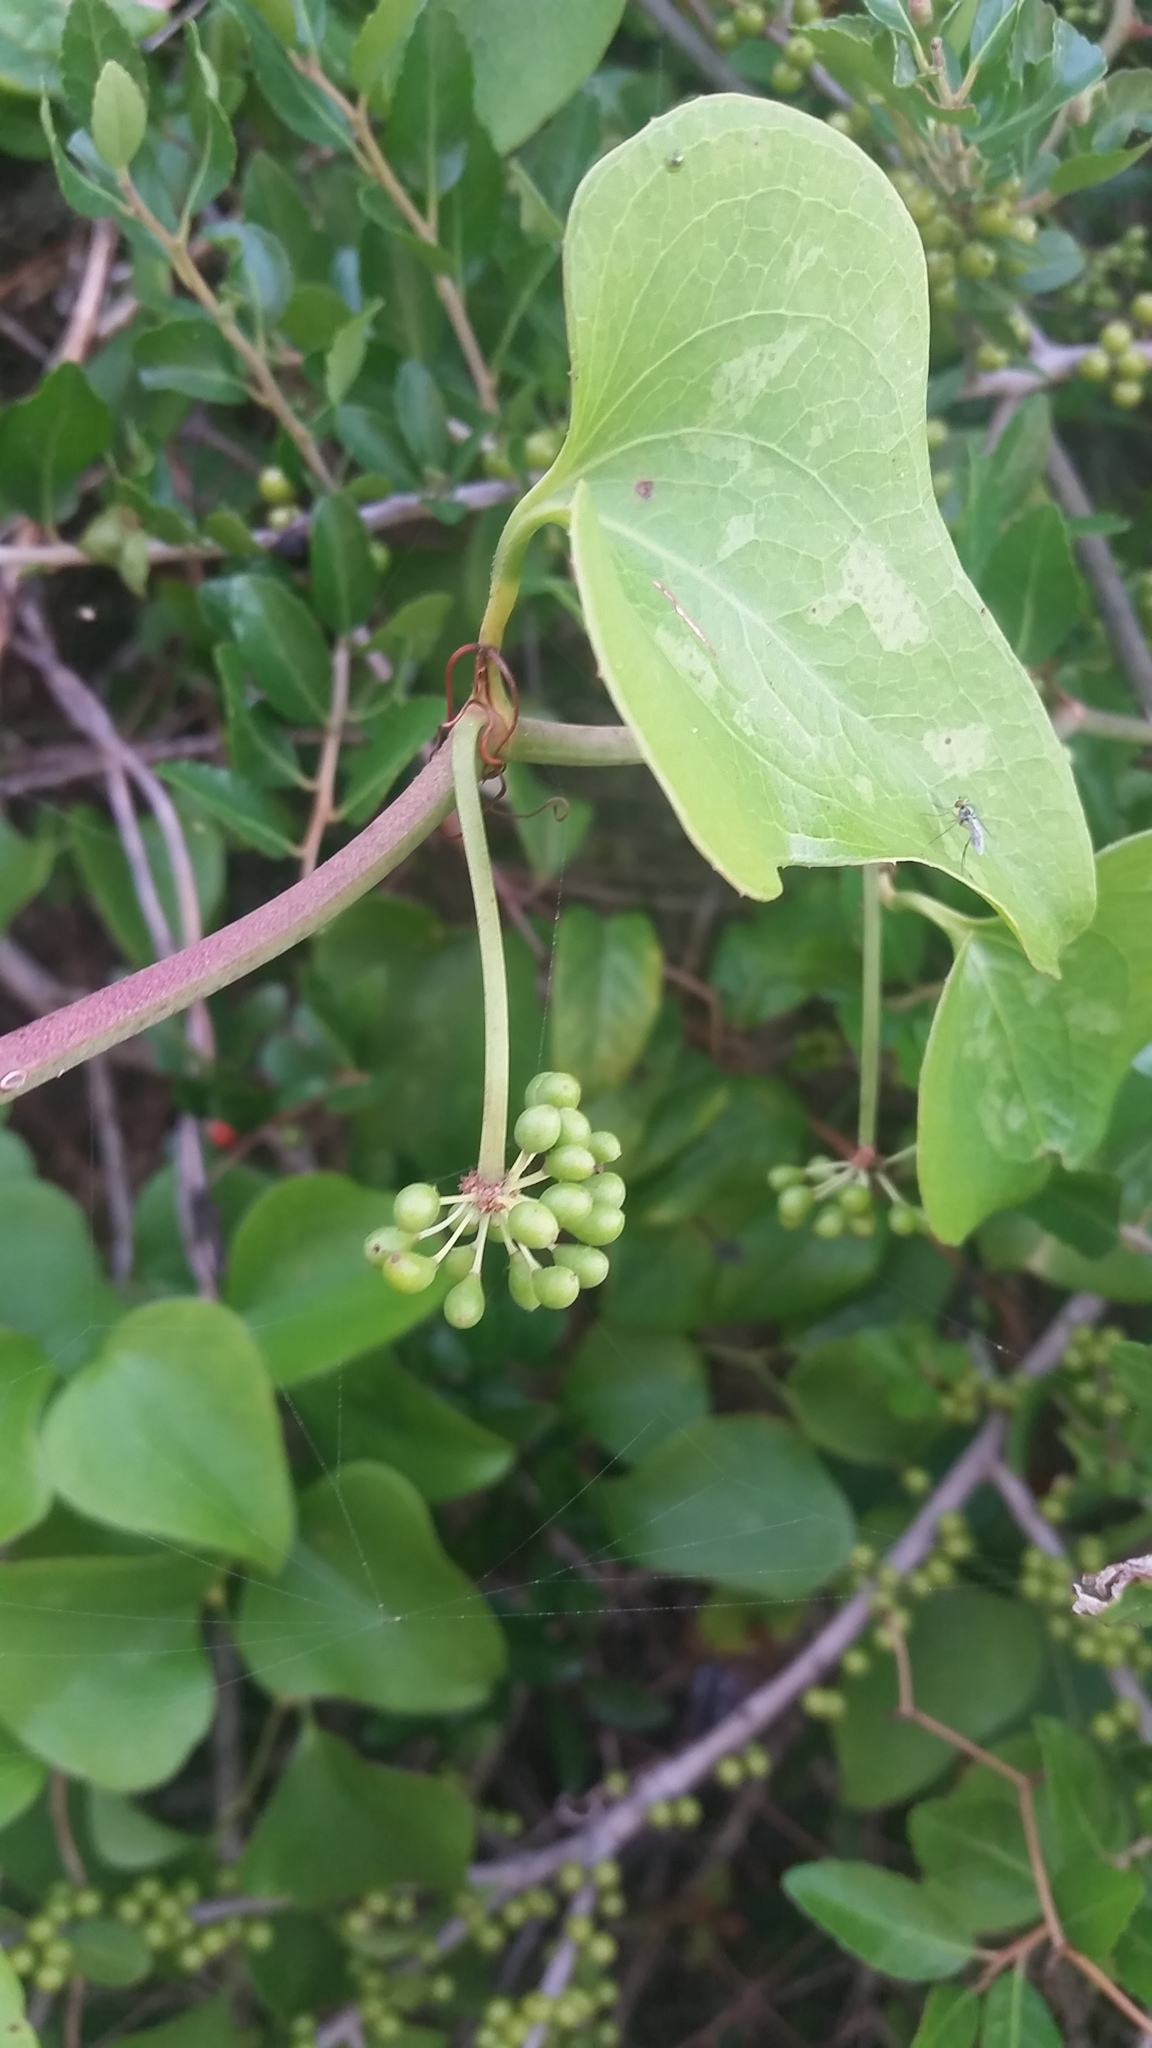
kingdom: Plantae
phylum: Tracheophyta
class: Liliopsida
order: Liliales
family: Smilacaceae
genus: Smilax
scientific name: Smilax bona-nox
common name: Catbrier
